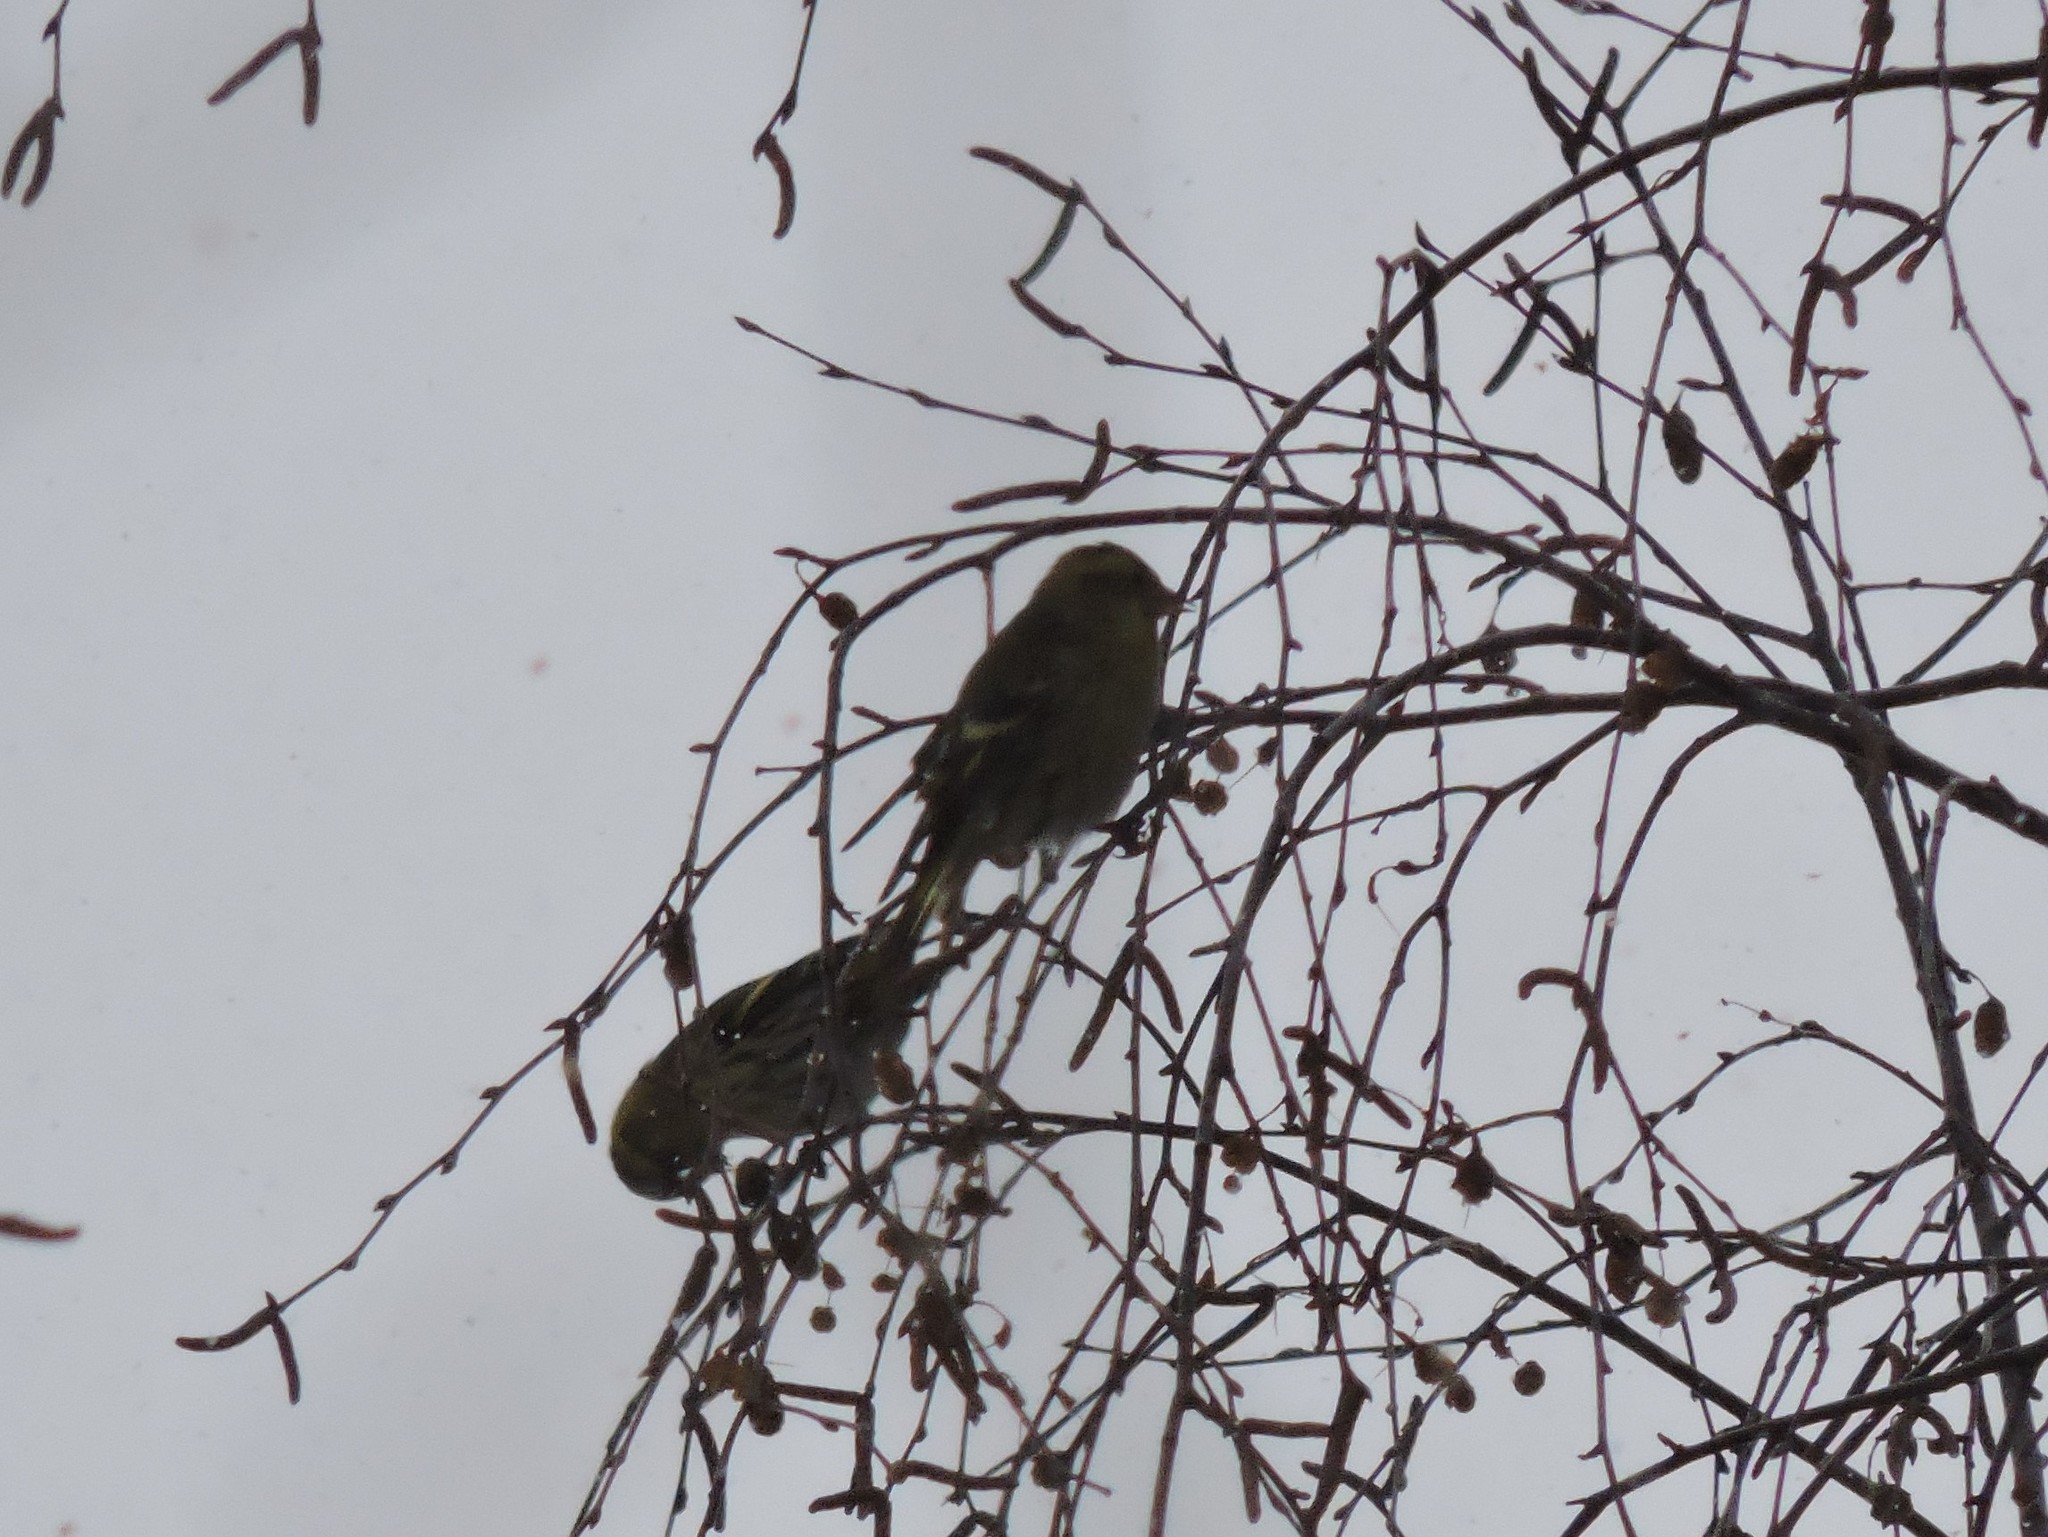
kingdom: Animalia
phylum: Chordata
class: Aves
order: Passeriformes
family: Fringillidae
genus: Spinus
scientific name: Spinus spinus
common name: Eurasian siskin
